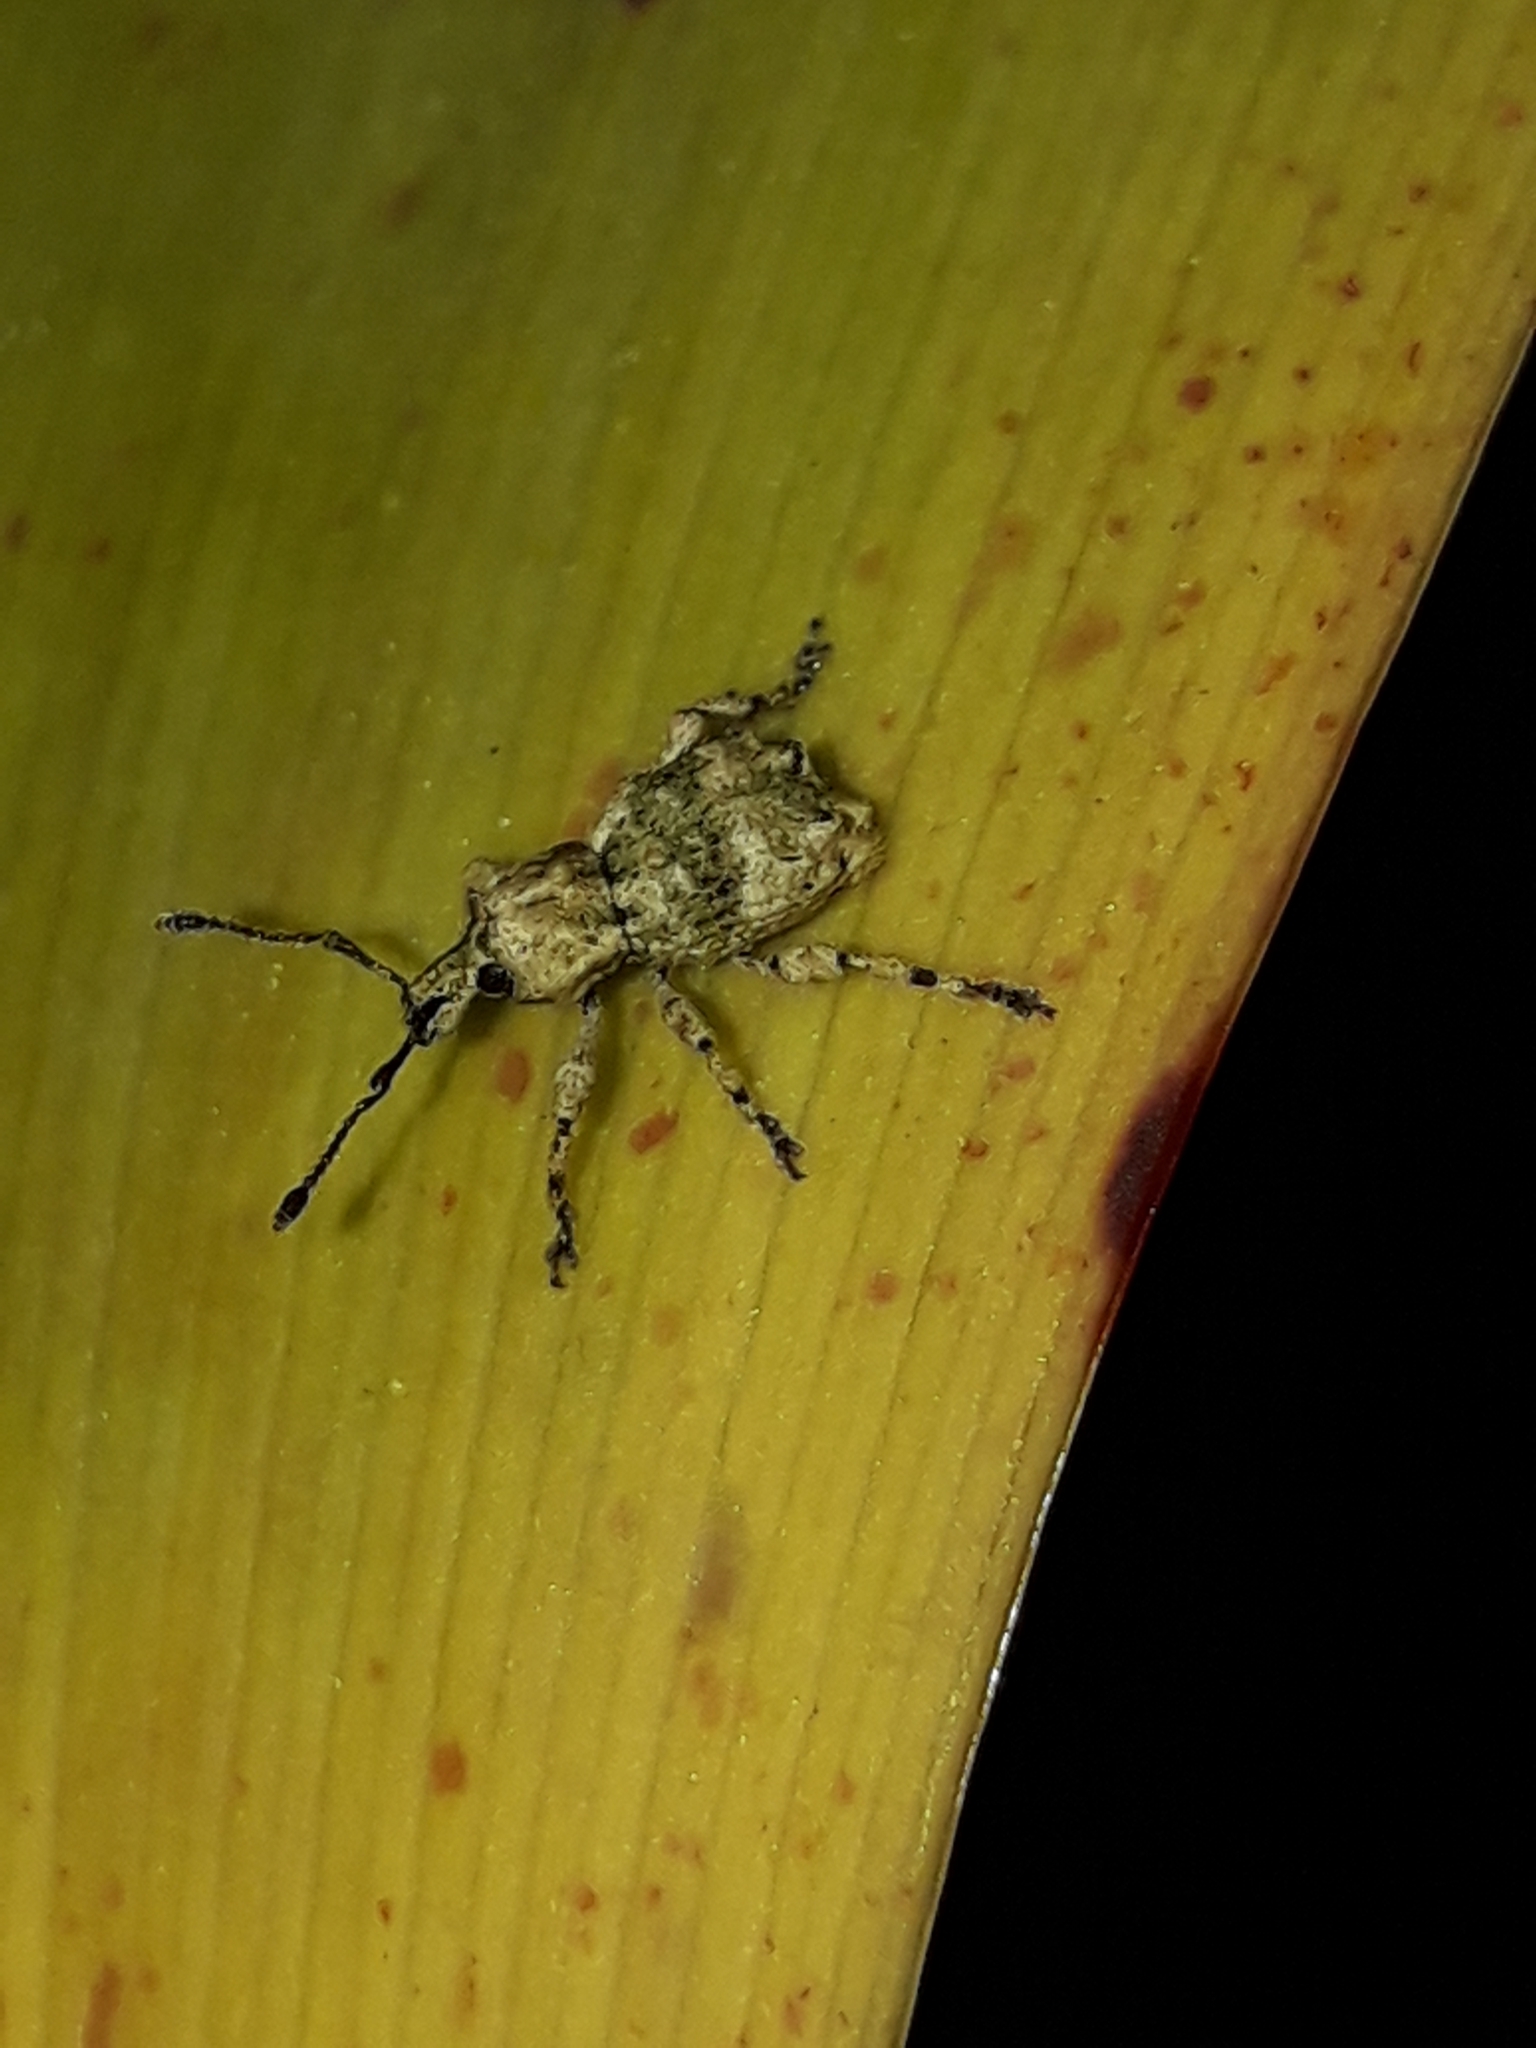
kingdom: Animalia
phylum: Arthropoda
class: Insecta
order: Coleoptera
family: Curculionidae
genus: Brachyolus
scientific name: Brachyolus punctatus
